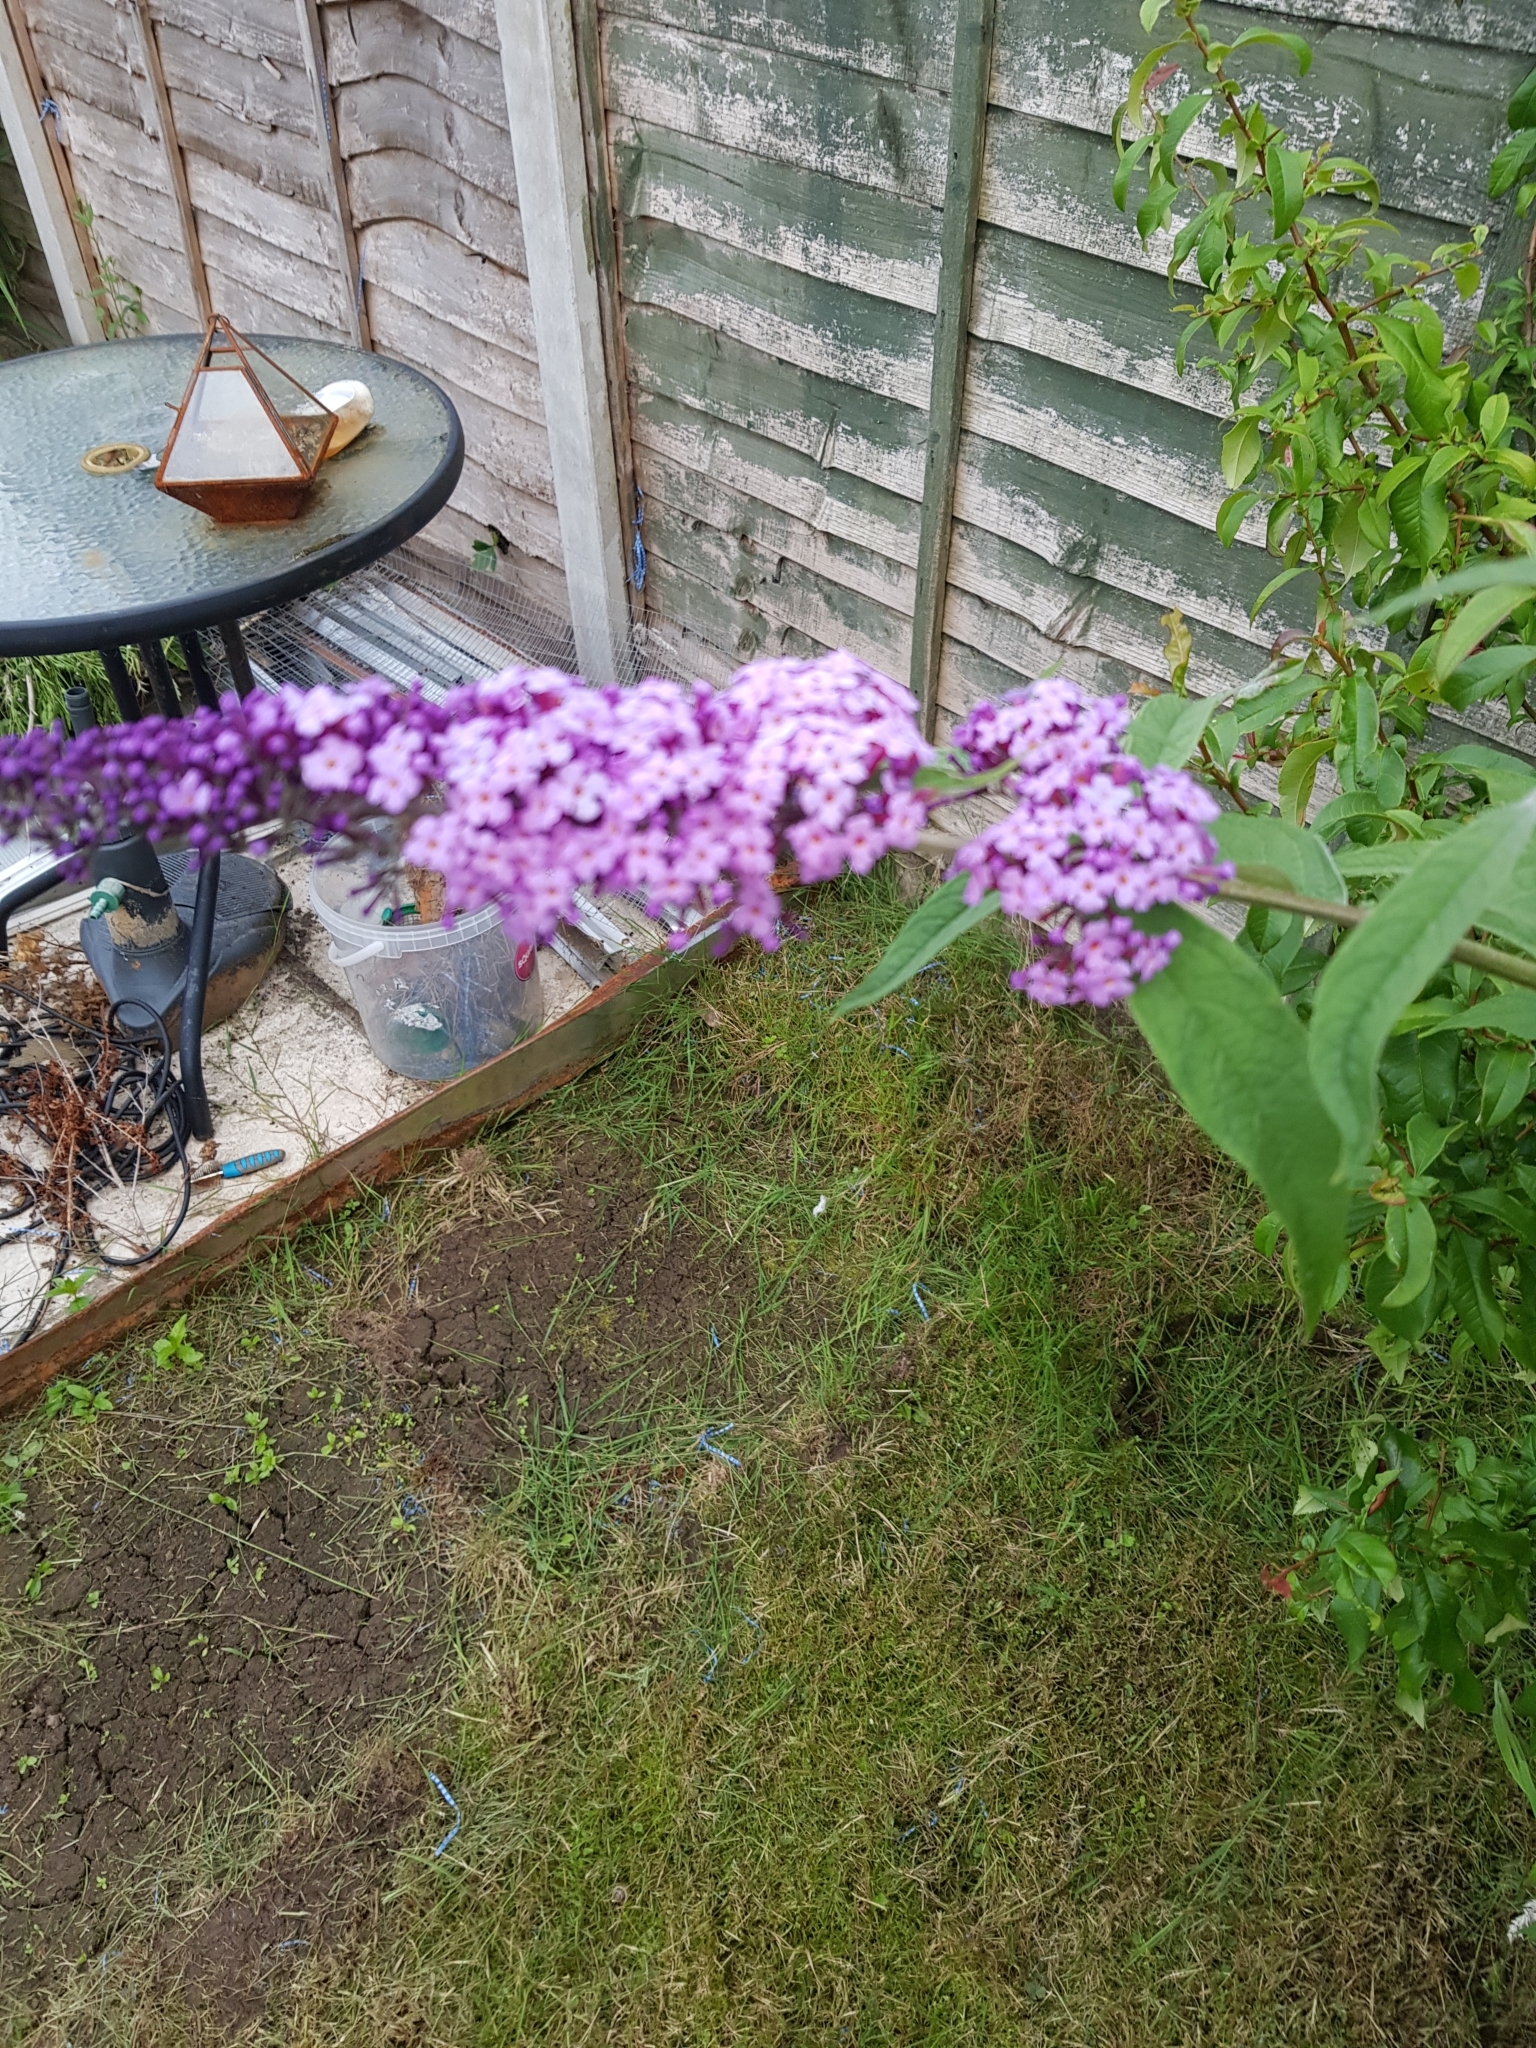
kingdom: Plantae
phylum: Tracheophyta
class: Magnoliopsida
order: Lamiales
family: Scrophulariaceae
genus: Buddleja
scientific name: Buddleja davidii
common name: Butterfly-bush
